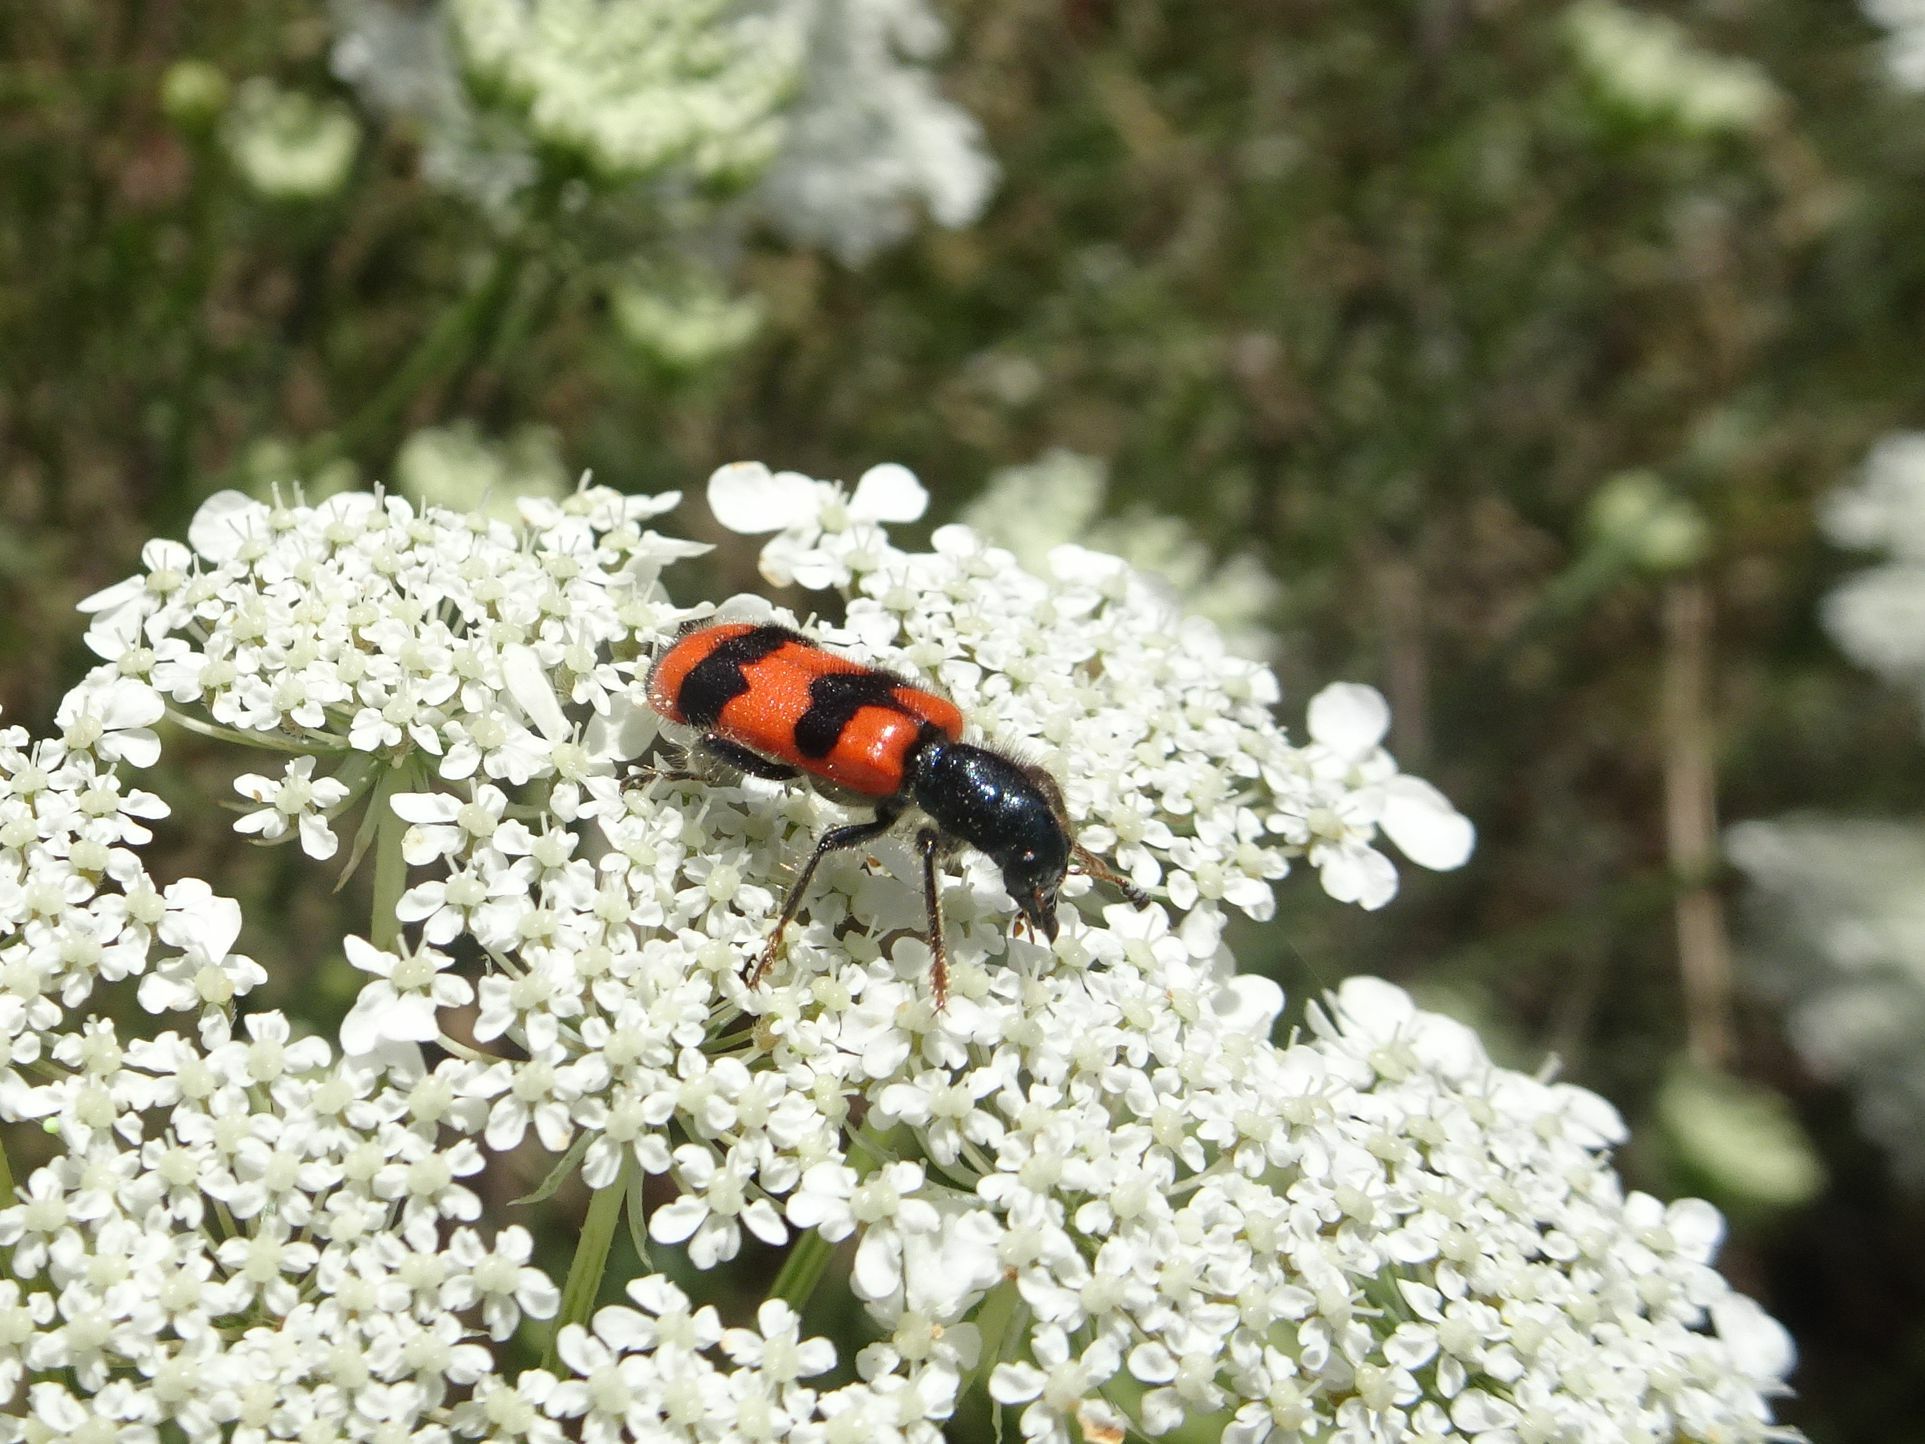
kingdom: Animalia
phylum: Arthropoda
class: Insecta
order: Coleoptera
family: Cleridae
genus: Trichodes
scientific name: Trichodes apiarius
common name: Bee-eating beetle
